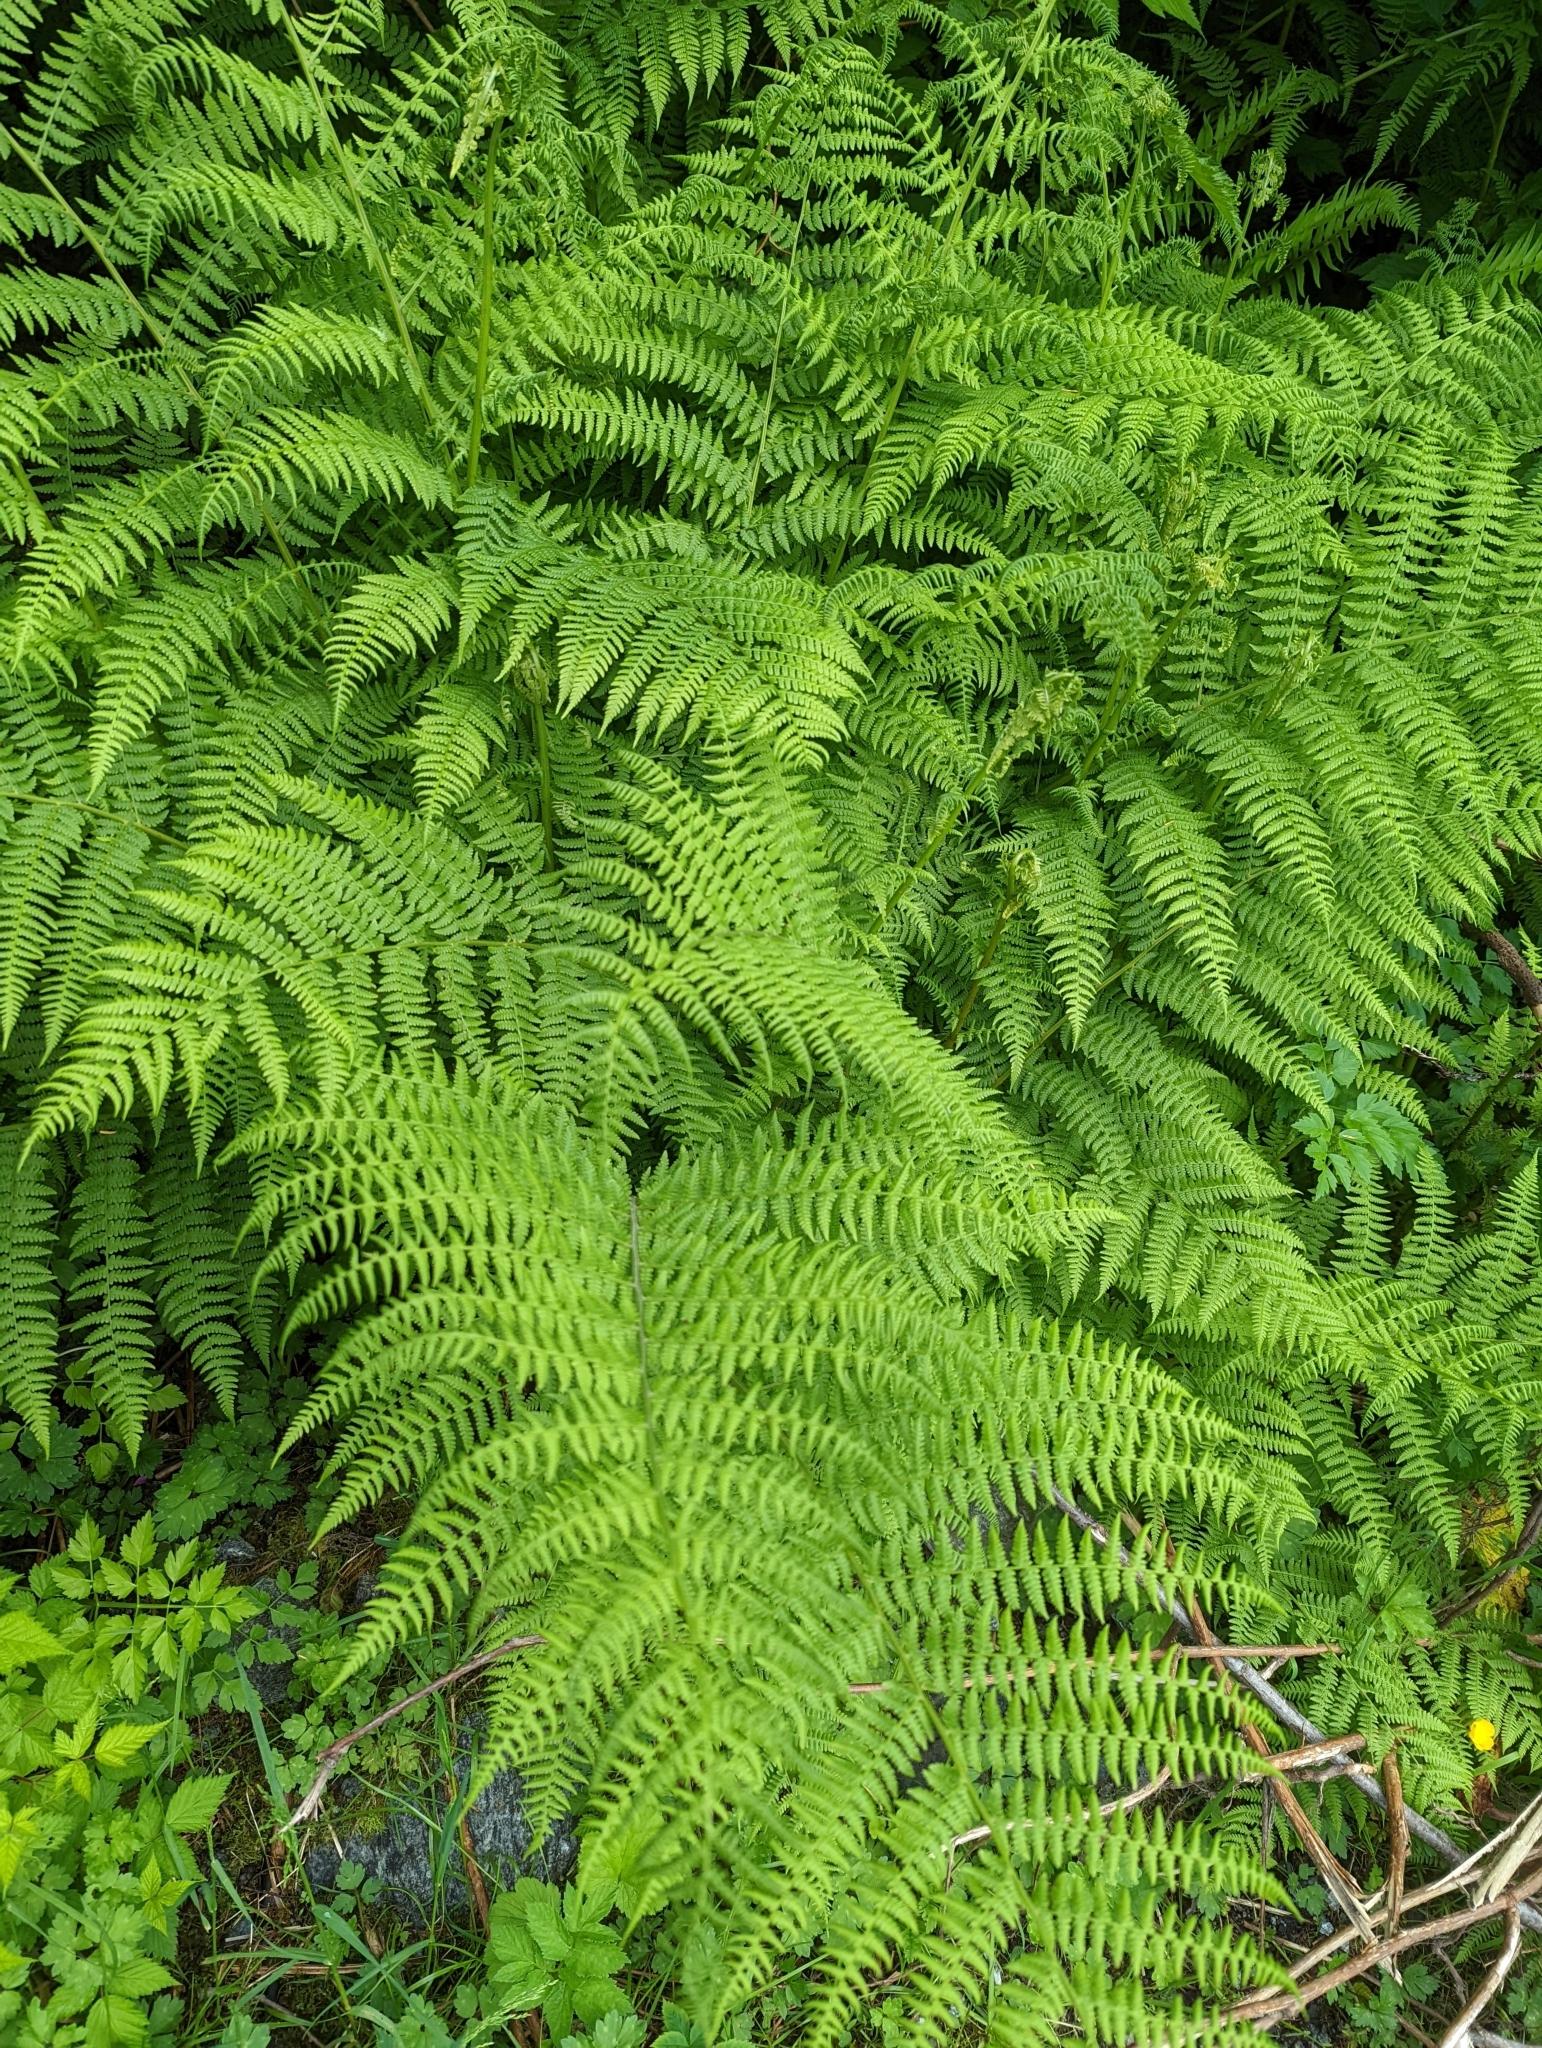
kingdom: Plantae
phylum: Tracheophyta
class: Polypodiopsida
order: Polypodiales
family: Athyriaceae
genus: Athyrium
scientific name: Athyrium filix-femina
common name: Lady fern
